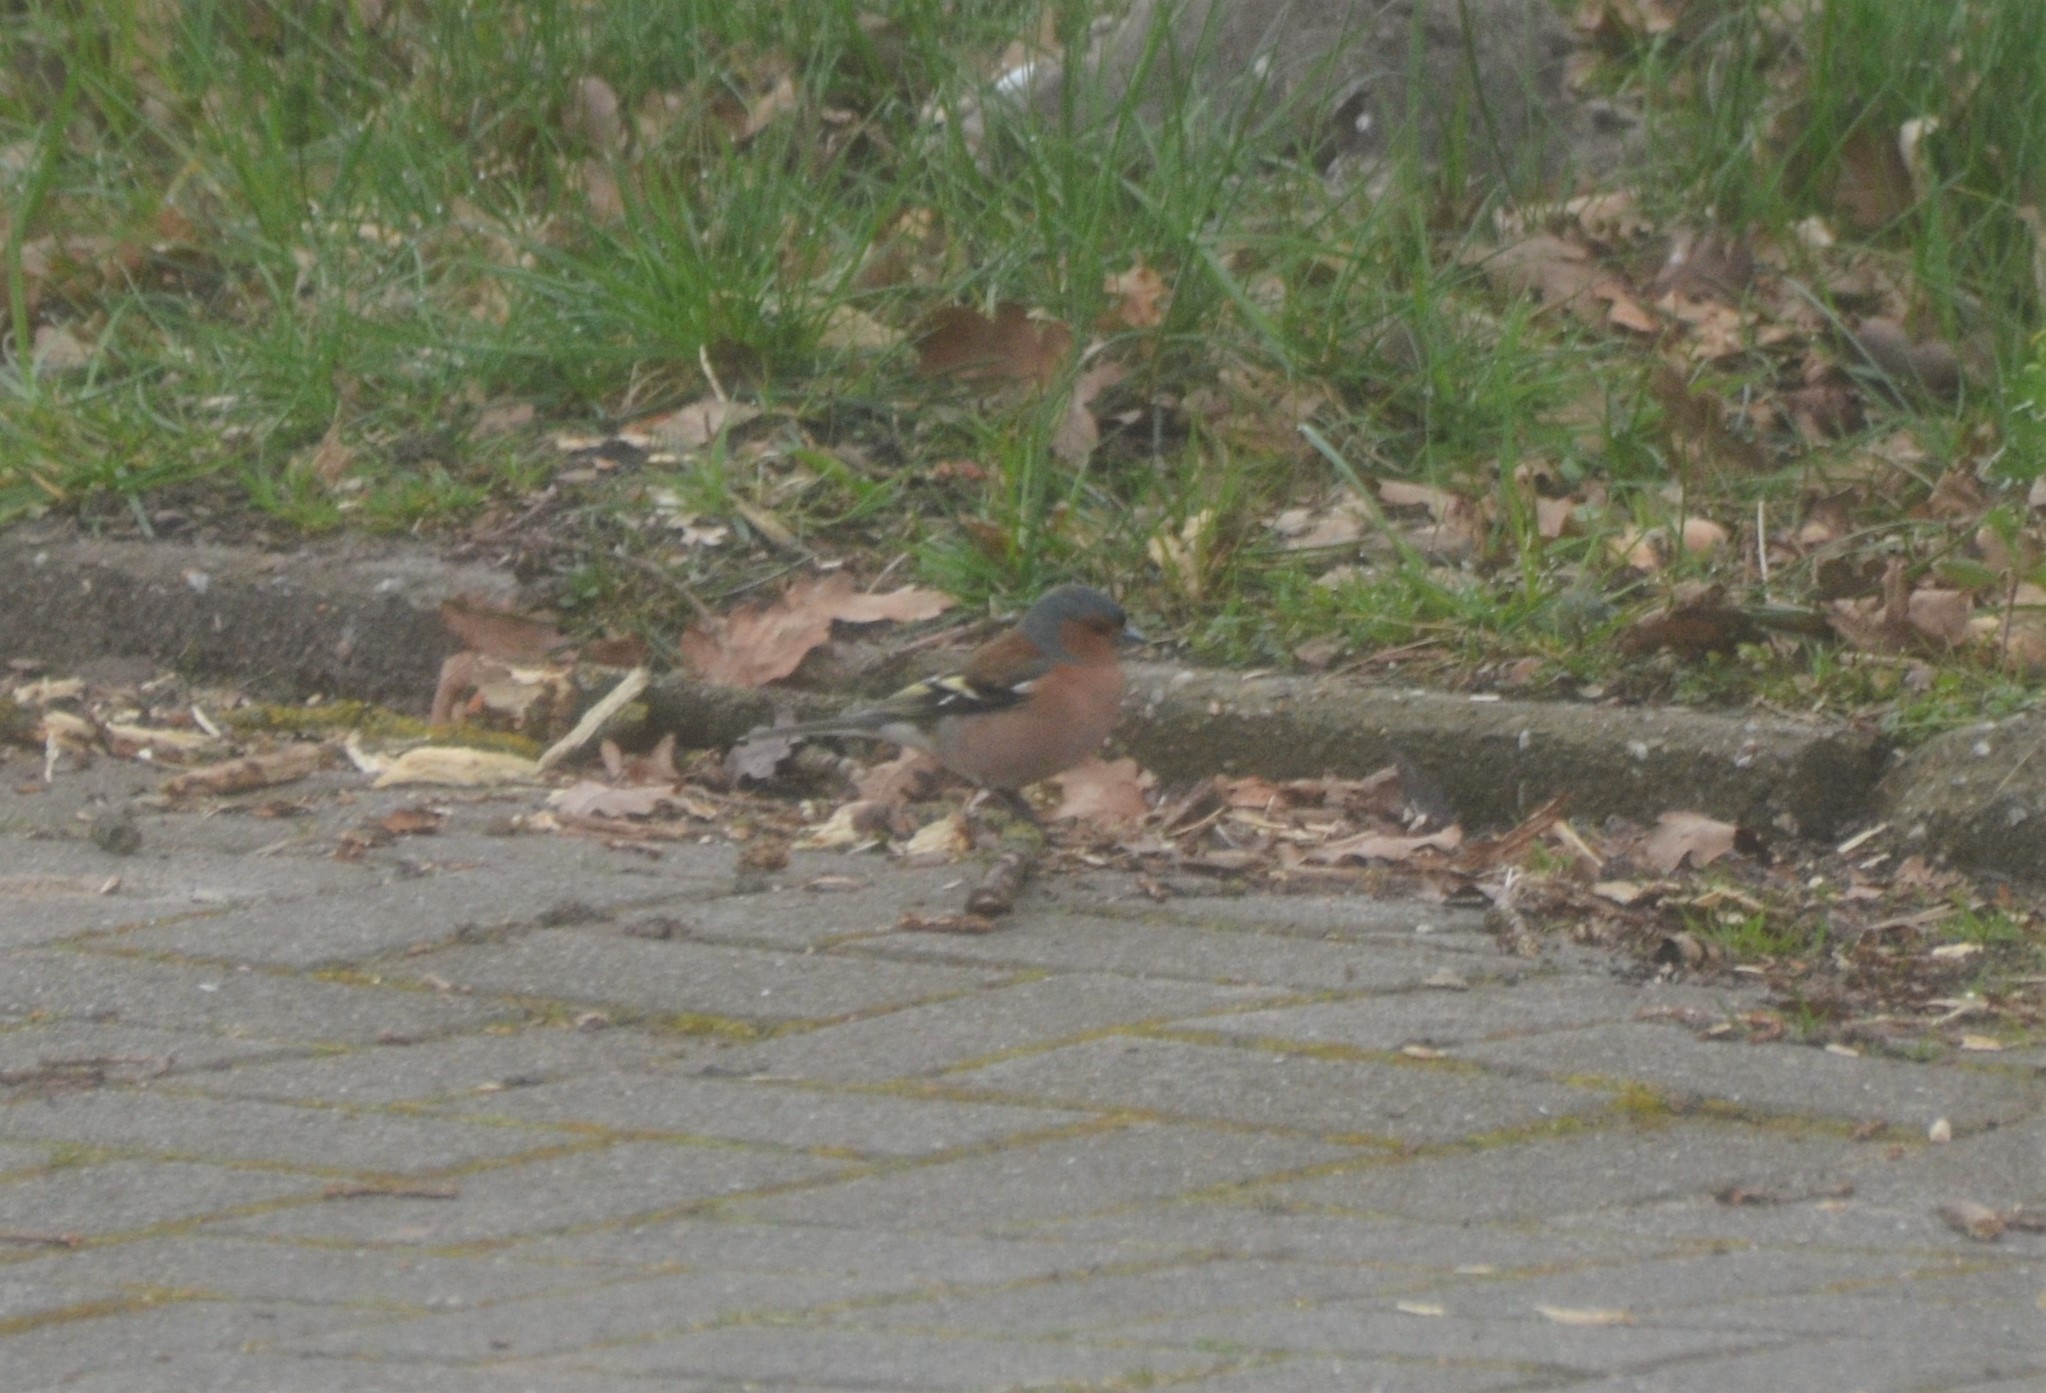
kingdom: Animalia
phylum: Chordata
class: Aves
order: Passeriformes
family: Fringillidae
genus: Fringilla
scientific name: Fringilla coelebs
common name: Common chaffinch
